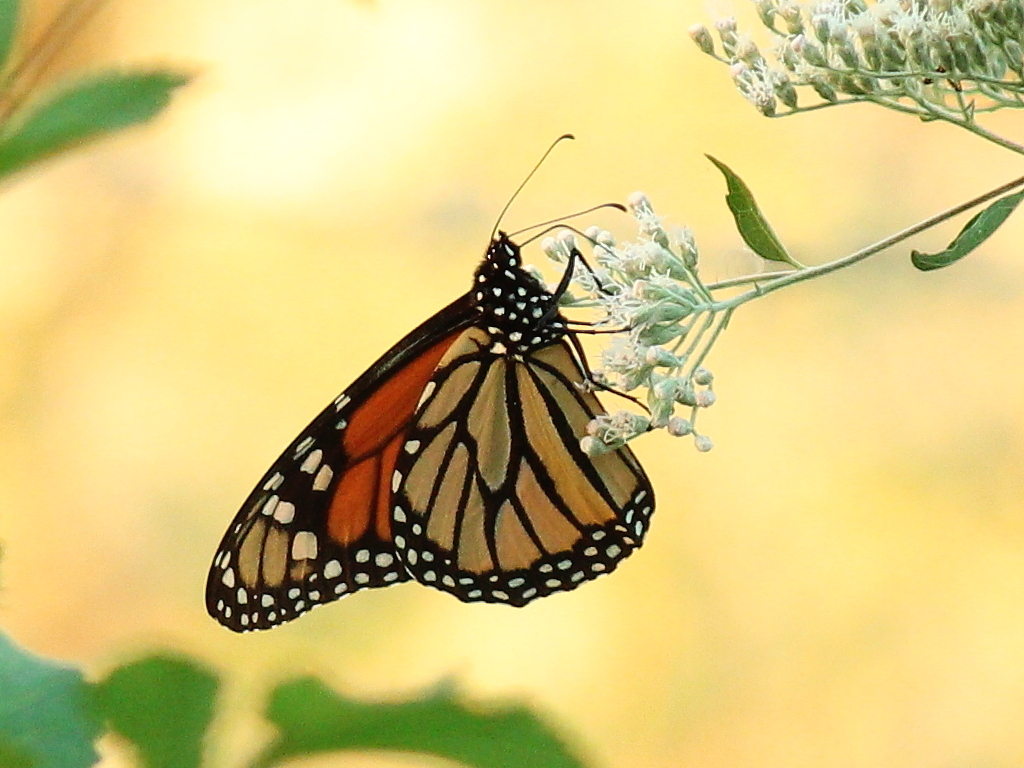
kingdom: Animalia
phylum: Arthropoda
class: Insecta
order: Lepidoptera
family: Nymphalidae
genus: Danaus
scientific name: Danaus plexippus
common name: Monarch
